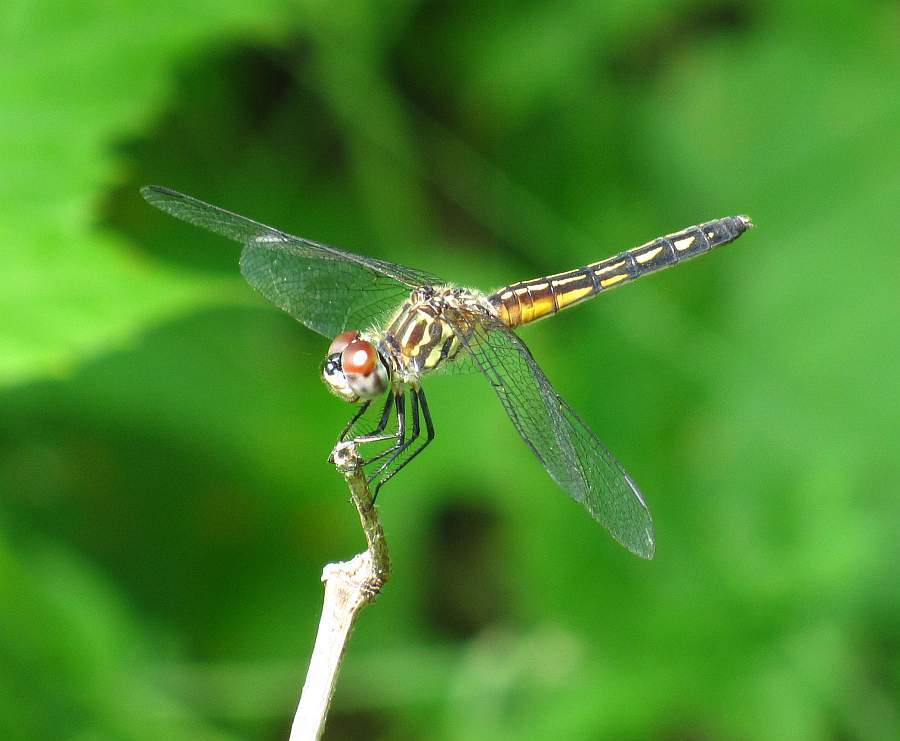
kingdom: Animalia
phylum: Arthropoda
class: Insecta
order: Odonata
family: Libellulidae
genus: Pachydiplax
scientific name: Pachydiplax longipennis
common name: Blue dasher
